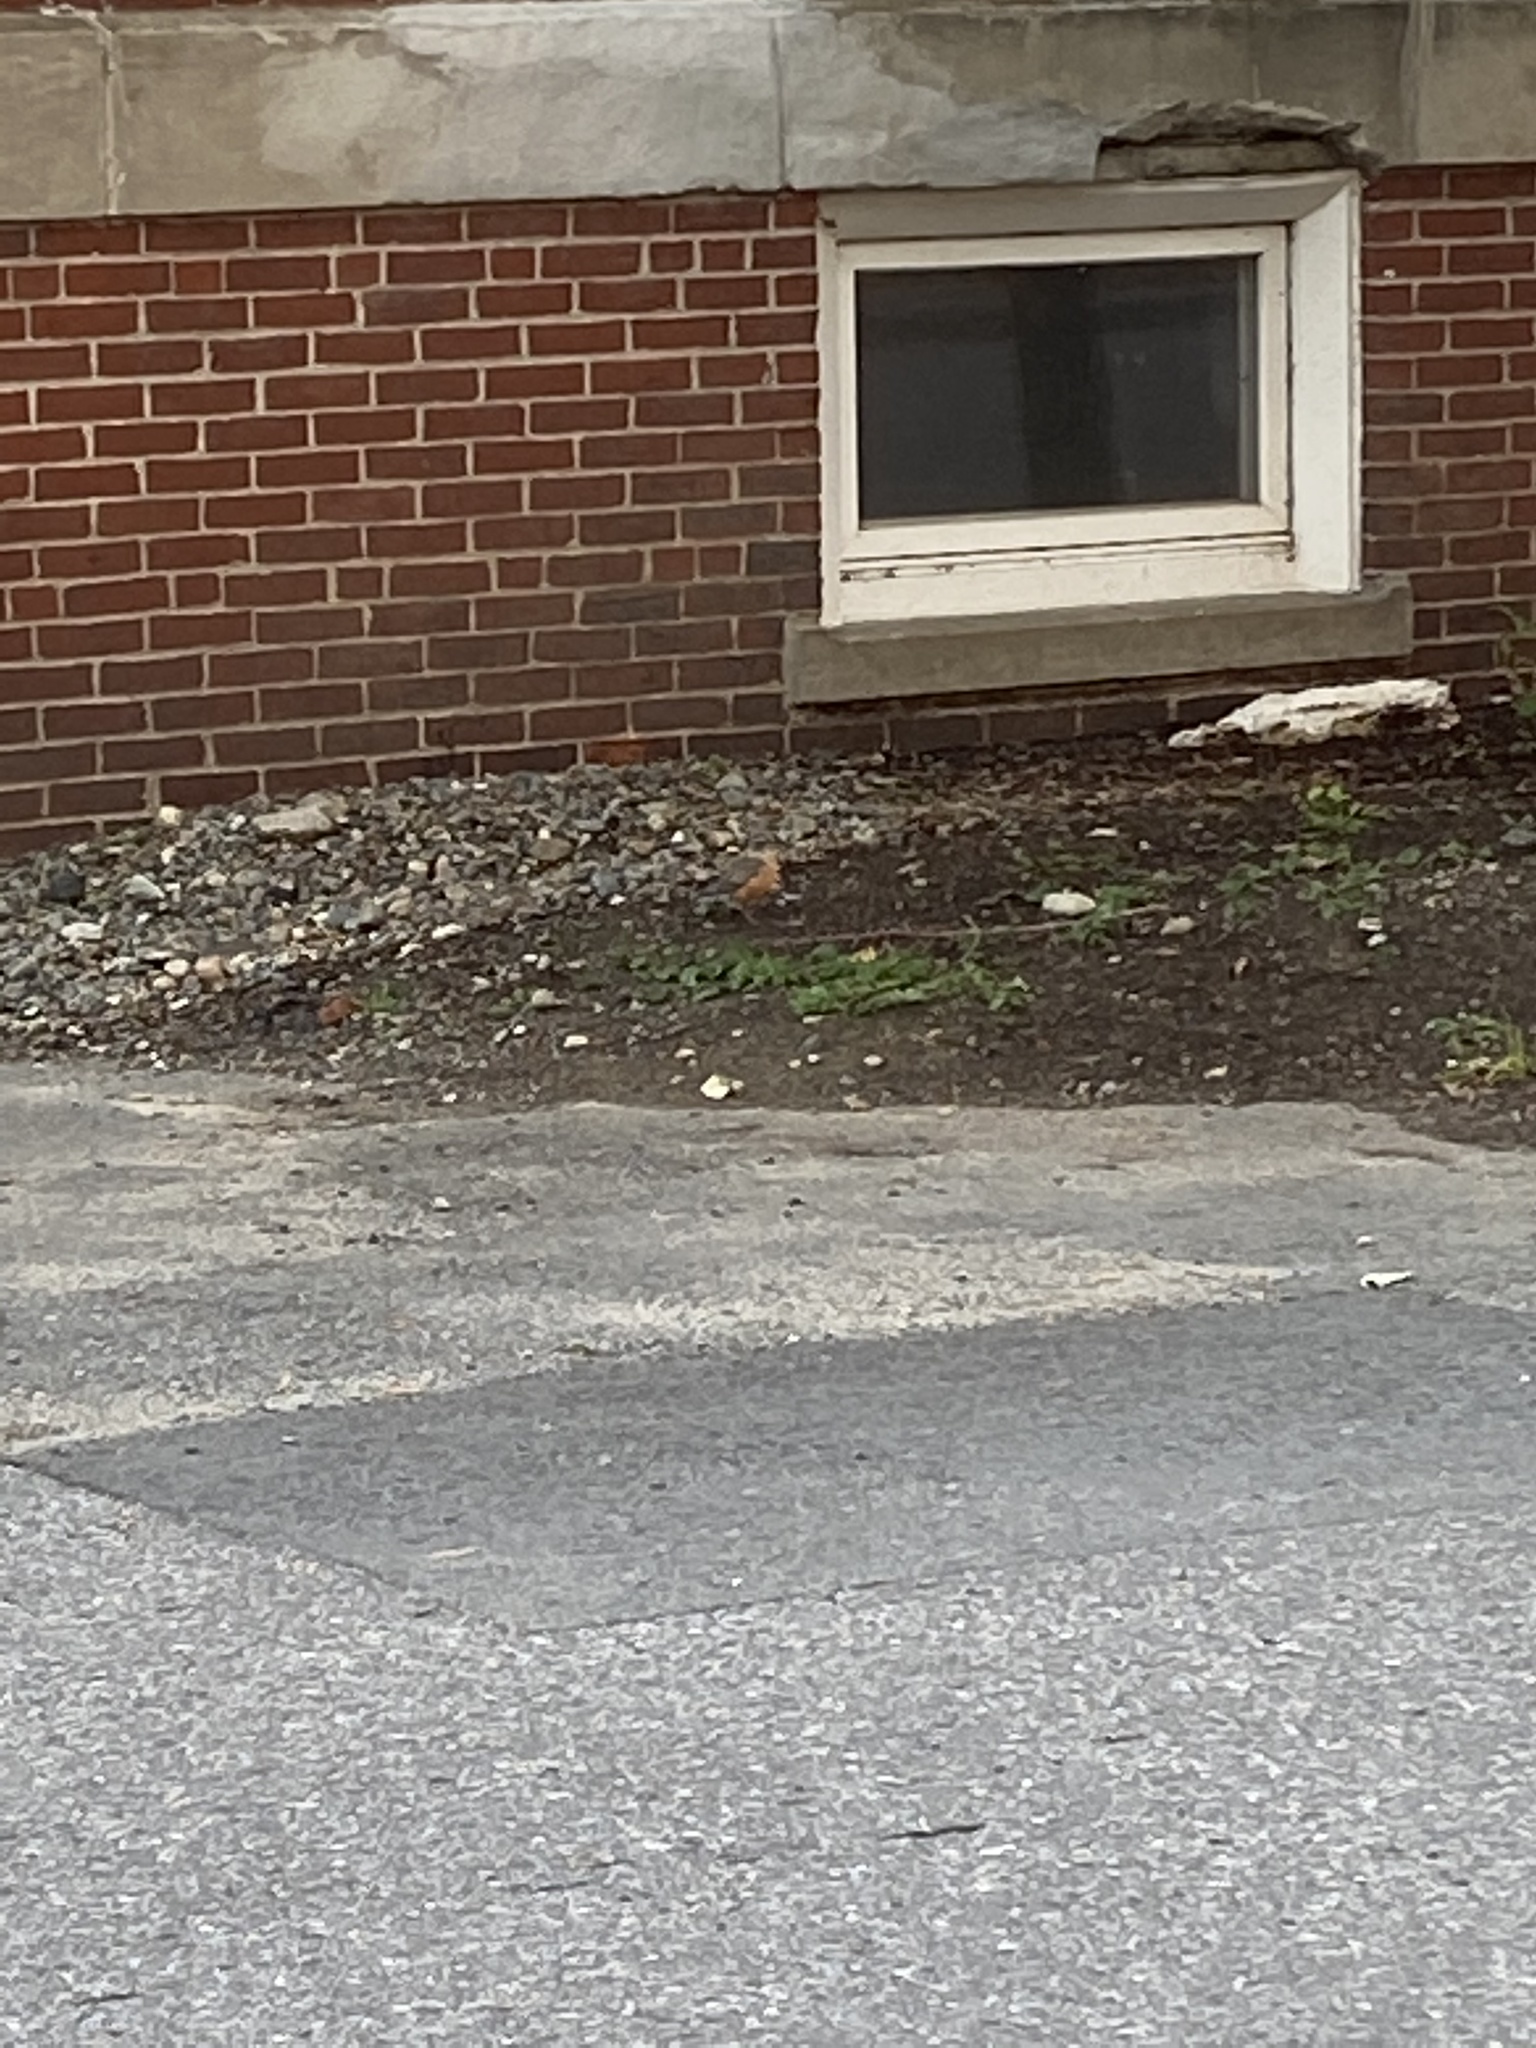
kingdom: Animalia
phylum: Chordata
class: Aves
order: Passeriformes
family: Turdidae
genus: Turdus
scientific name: Turdus migratorius
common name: American robin
